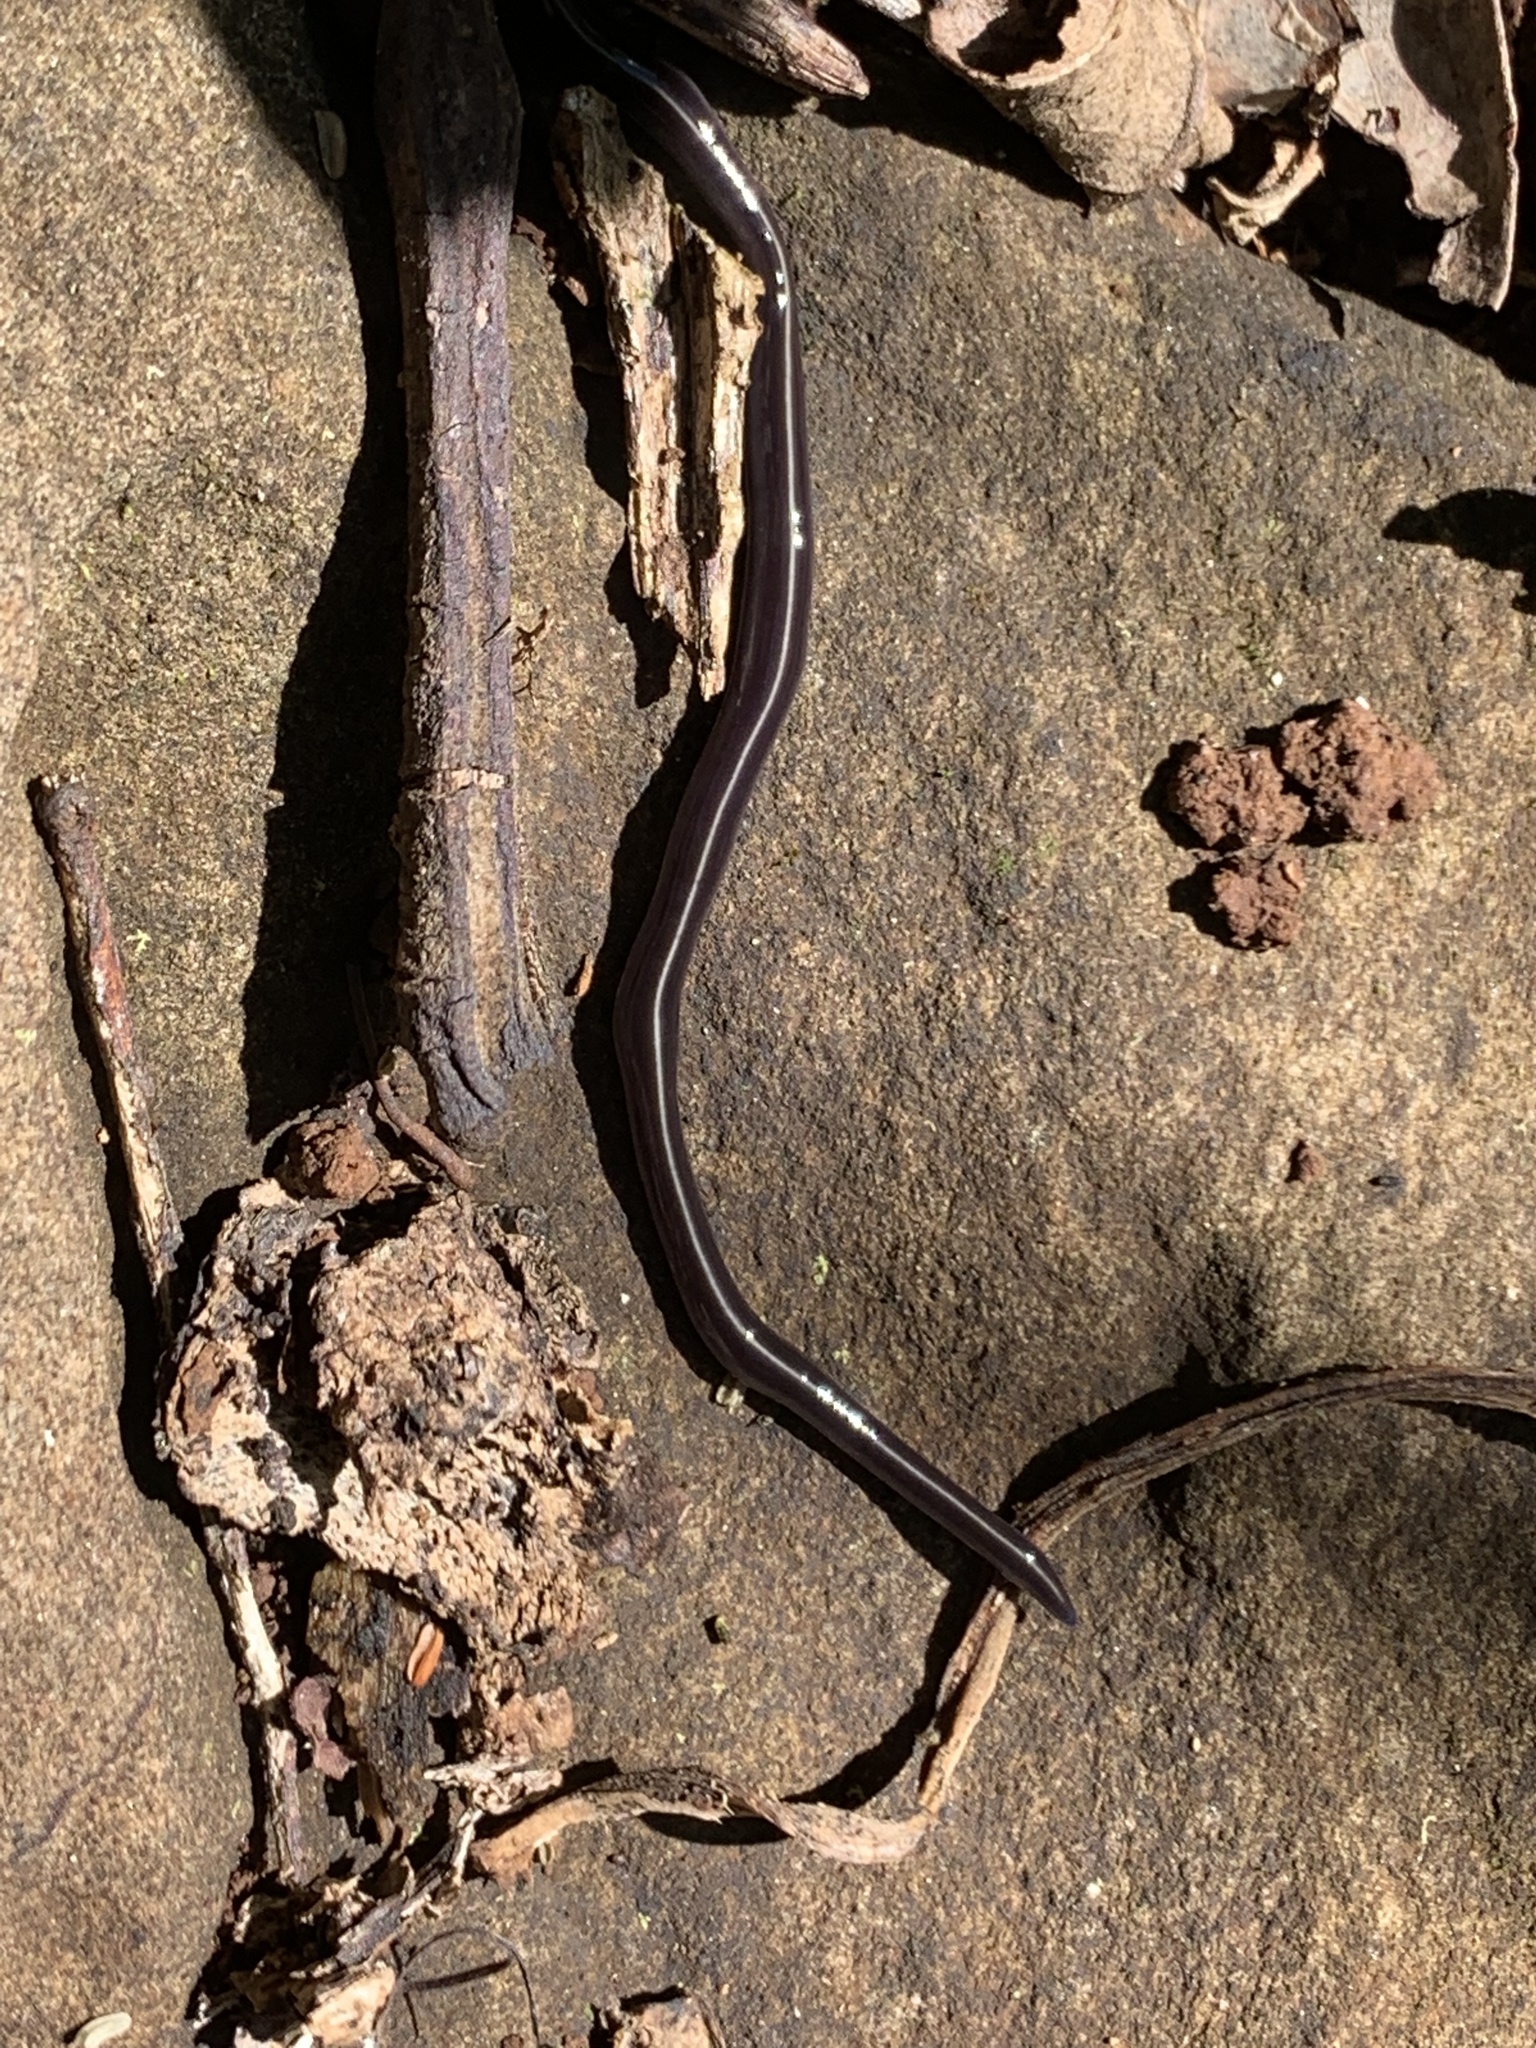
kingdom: Animalia
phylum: Platyhelminthes
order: Tricladida
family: Geoplanidae
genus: Caenoplana
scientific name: Caenoplana coerulea
